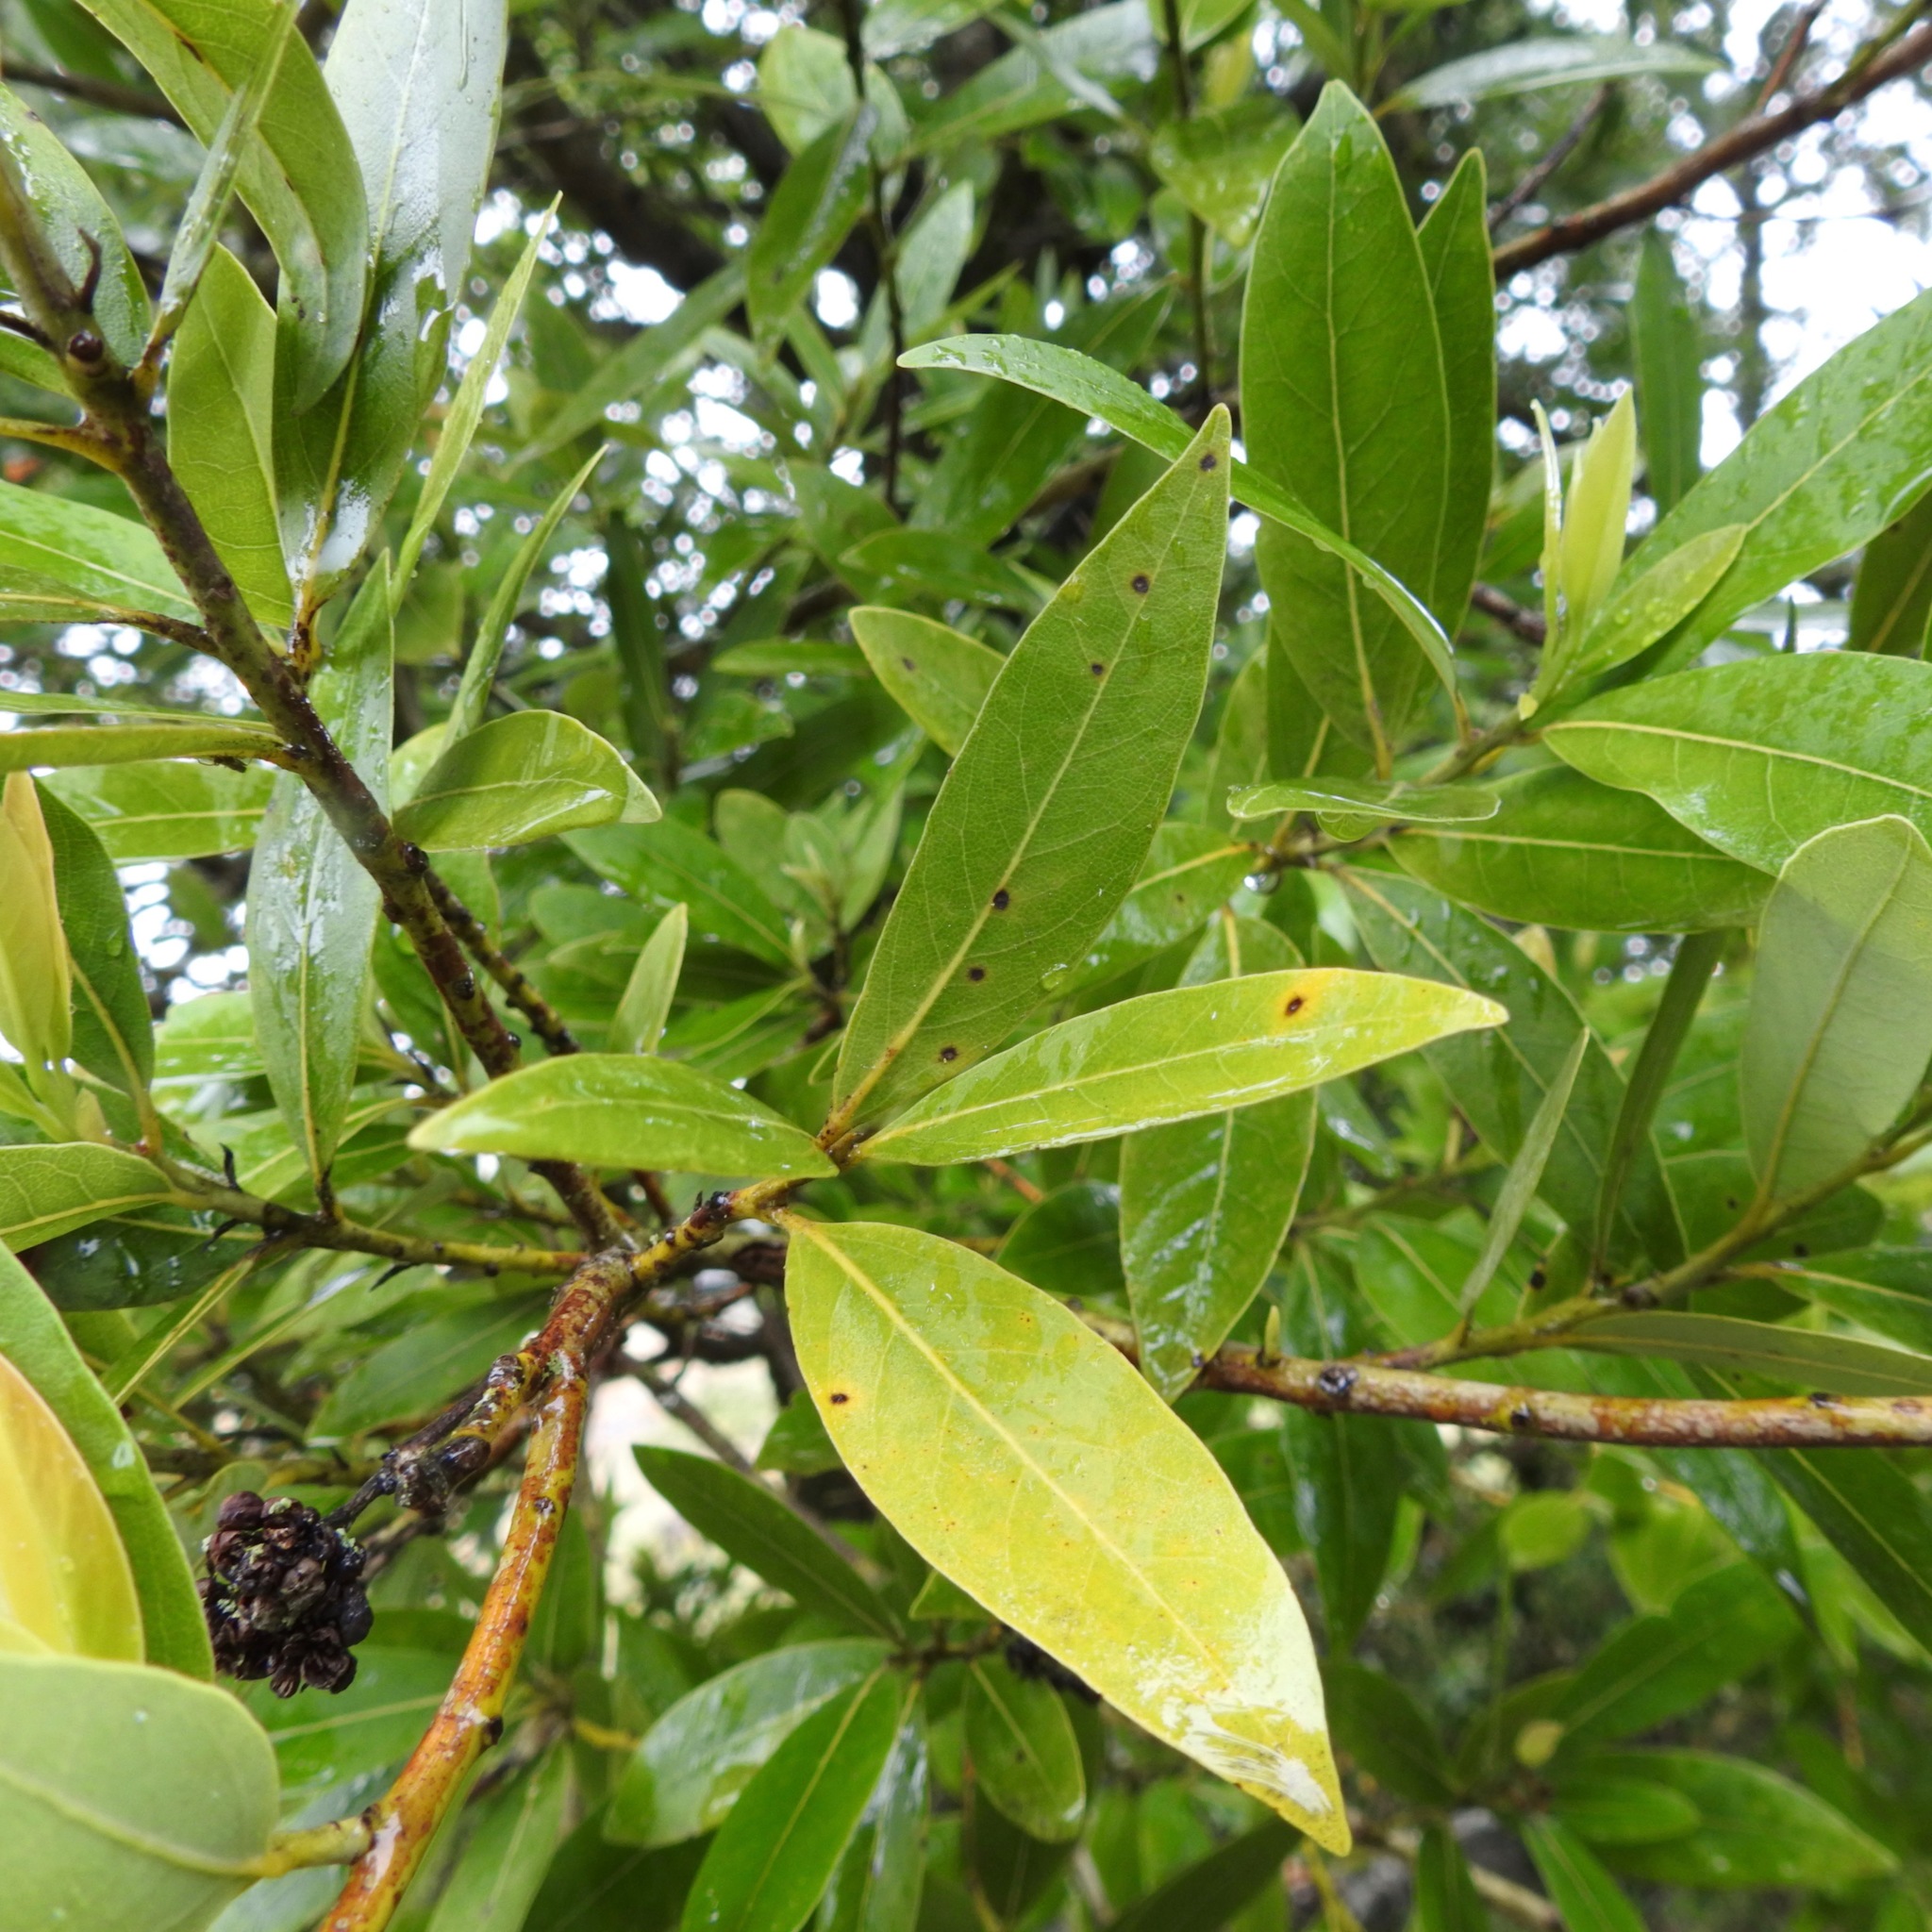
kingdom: Plantae
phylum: Tracheophyta
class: Magnoliopsida
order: Laurales
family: Lauraceae
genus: Umbellularia
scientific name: Umbellularia californica
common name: California bay
